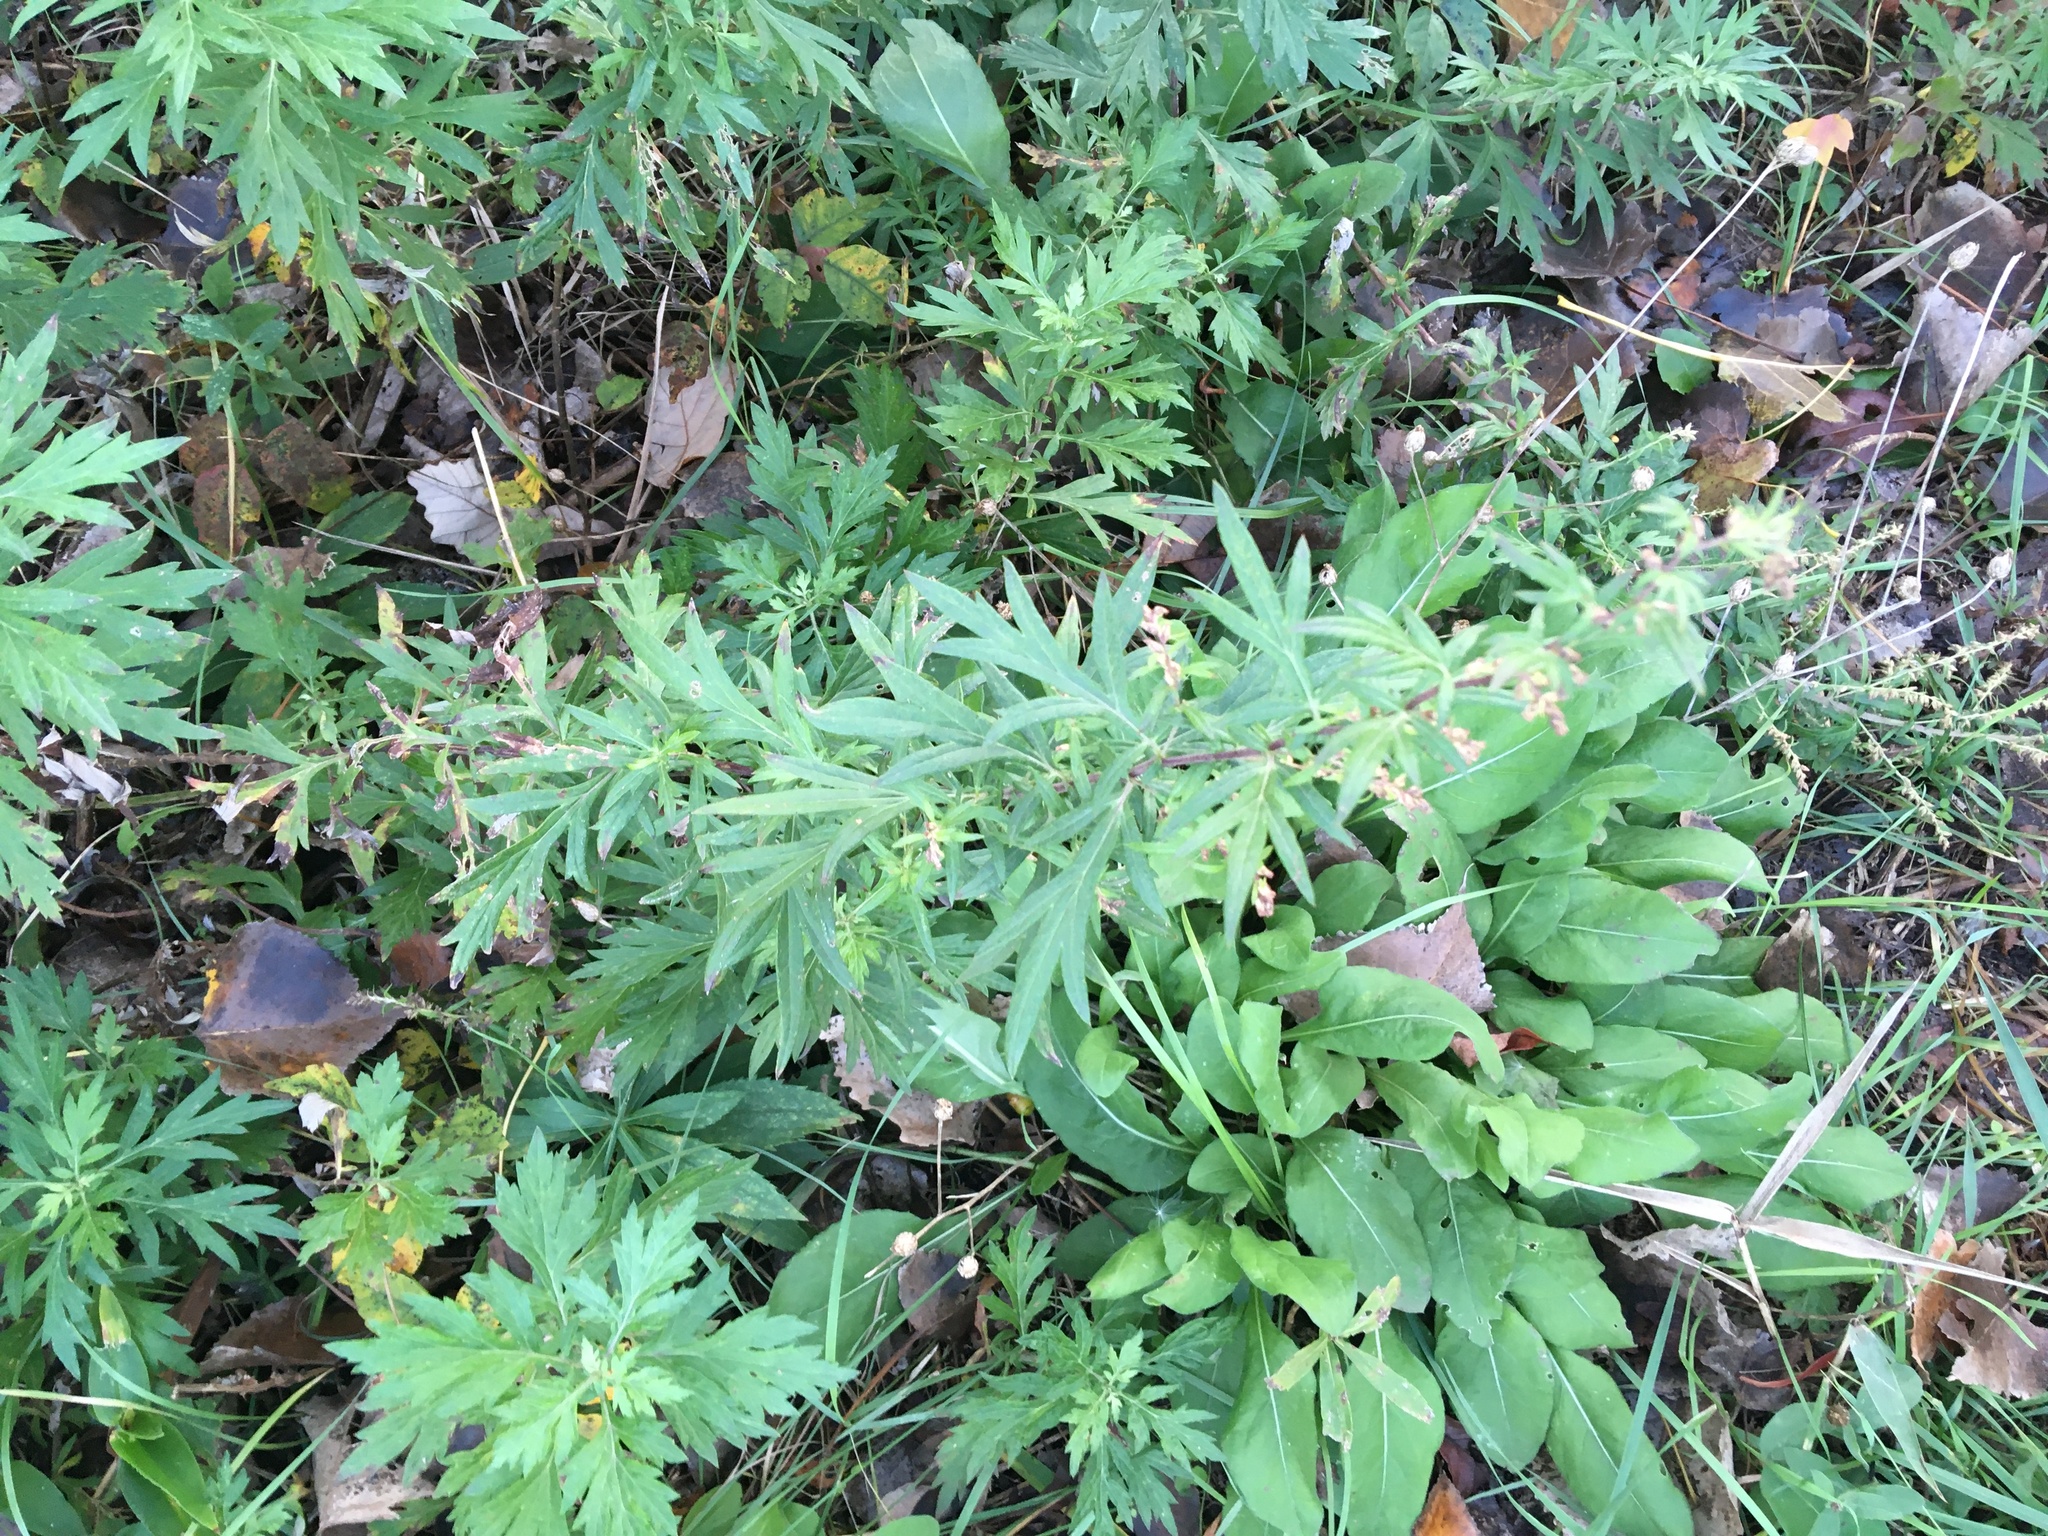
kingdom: Plantae
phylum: Tracheophyta
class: Magnoliopsida
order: Asterales
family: Asteraceae
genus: Artemisia
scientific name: Artemisia vulgaris
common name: Mugwort
